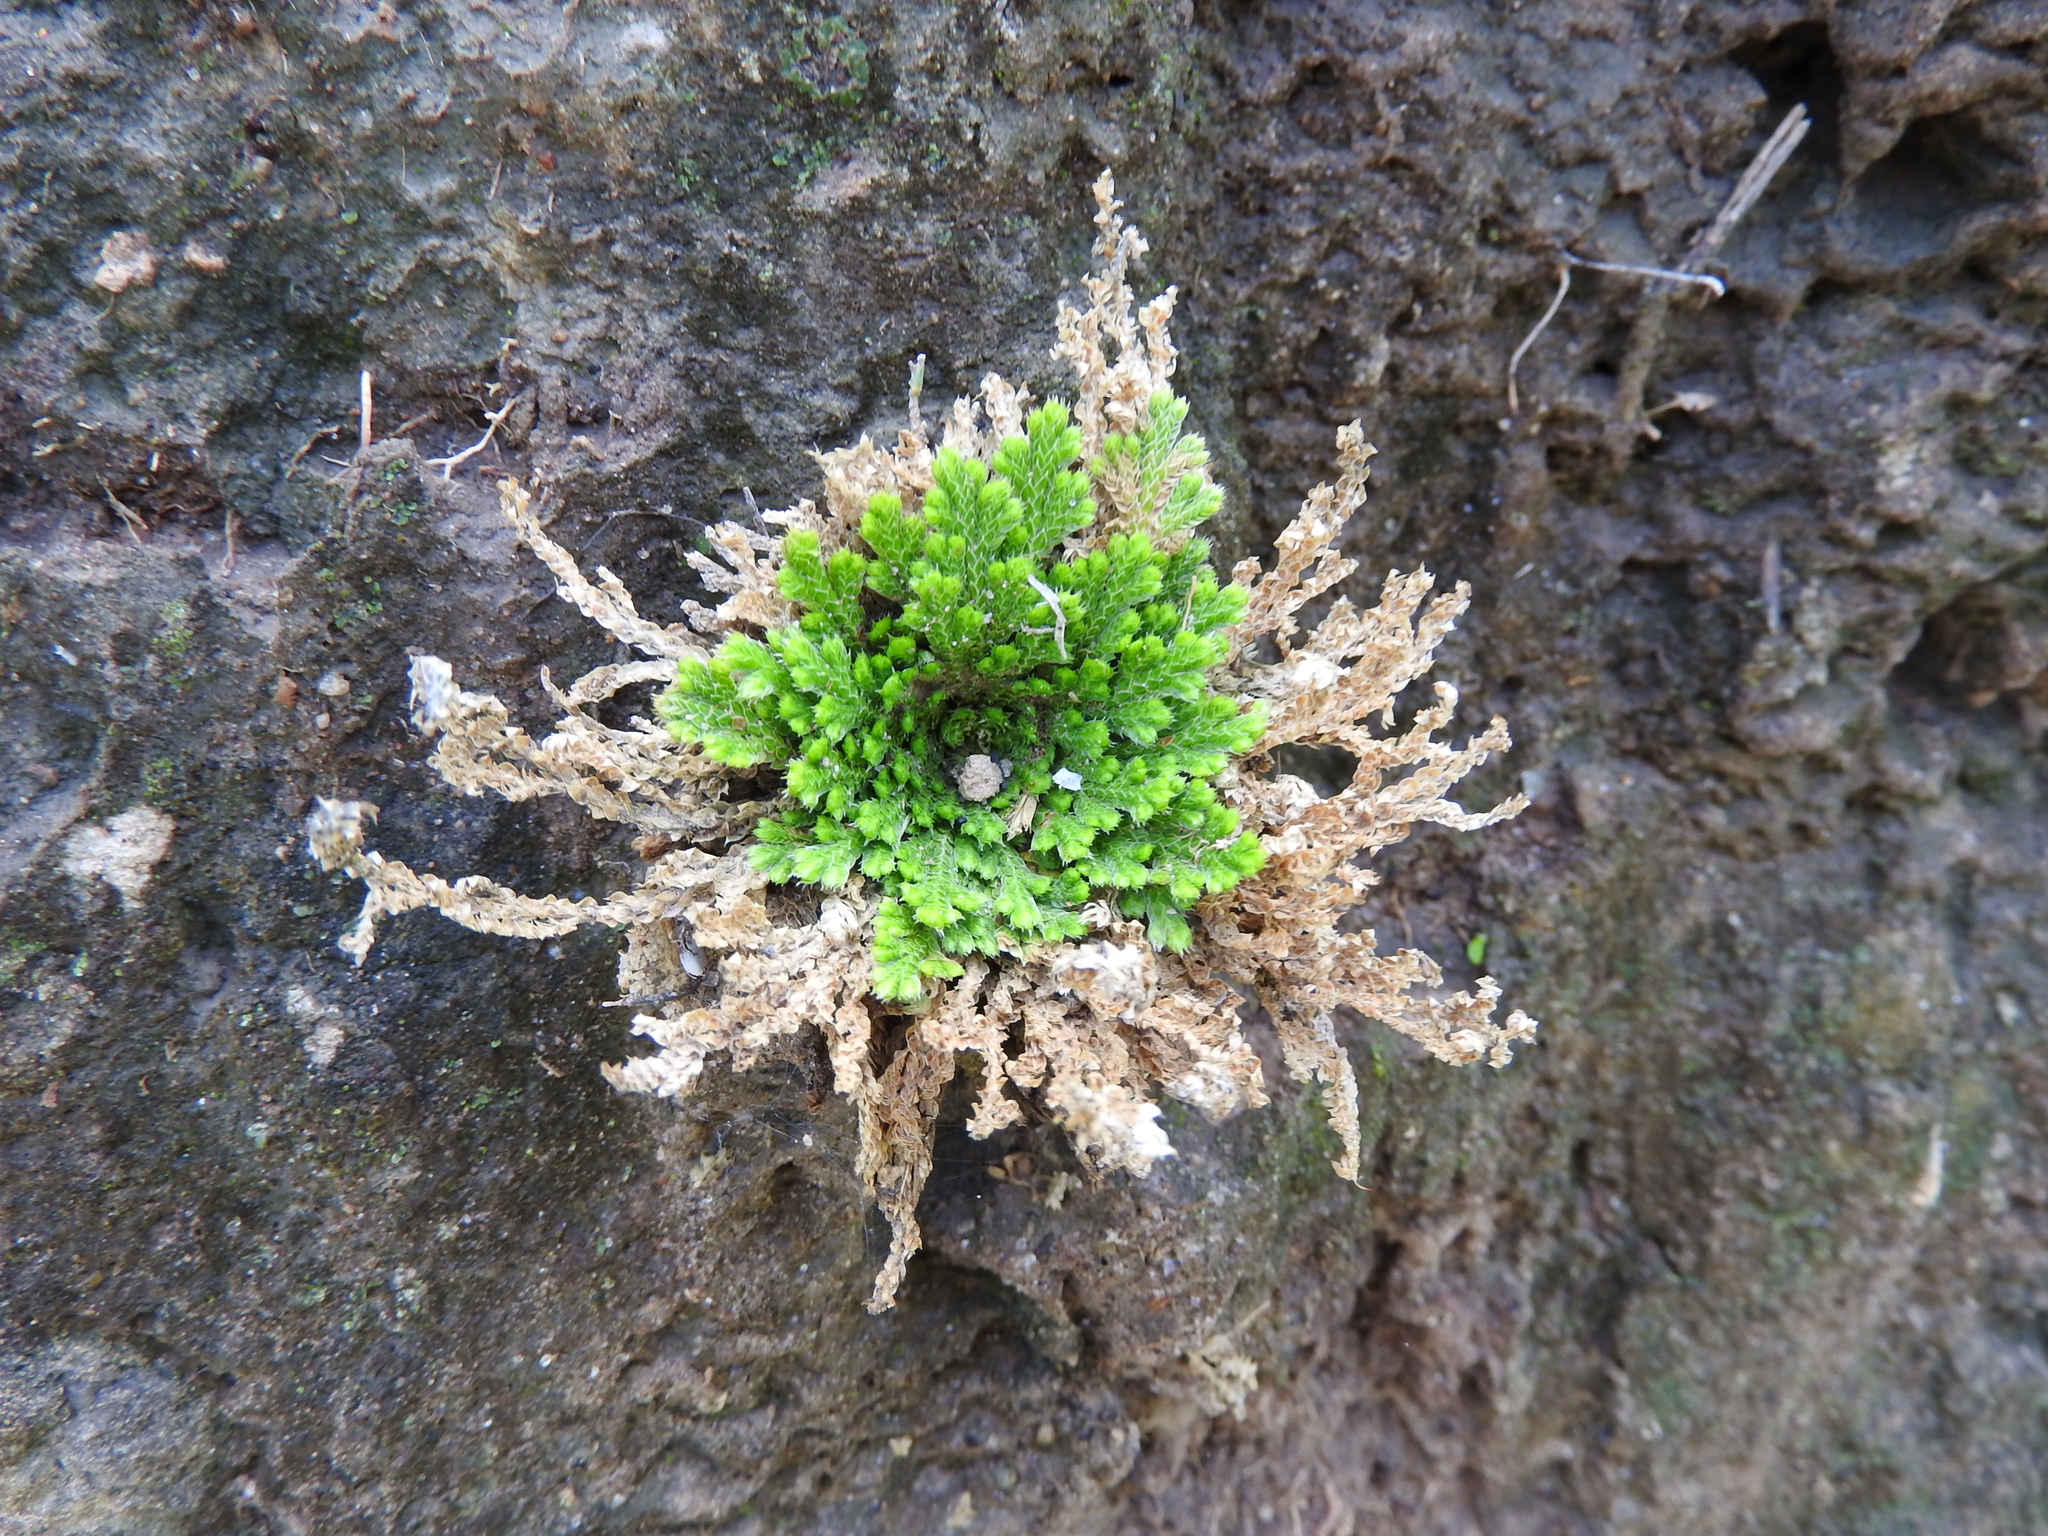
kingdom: Plantae
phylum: Tracheophyta
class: Lycopodiopsida
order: Selaginellales
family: Selaginellaceae
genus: Selaginella
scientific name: Selaginella pallescens
